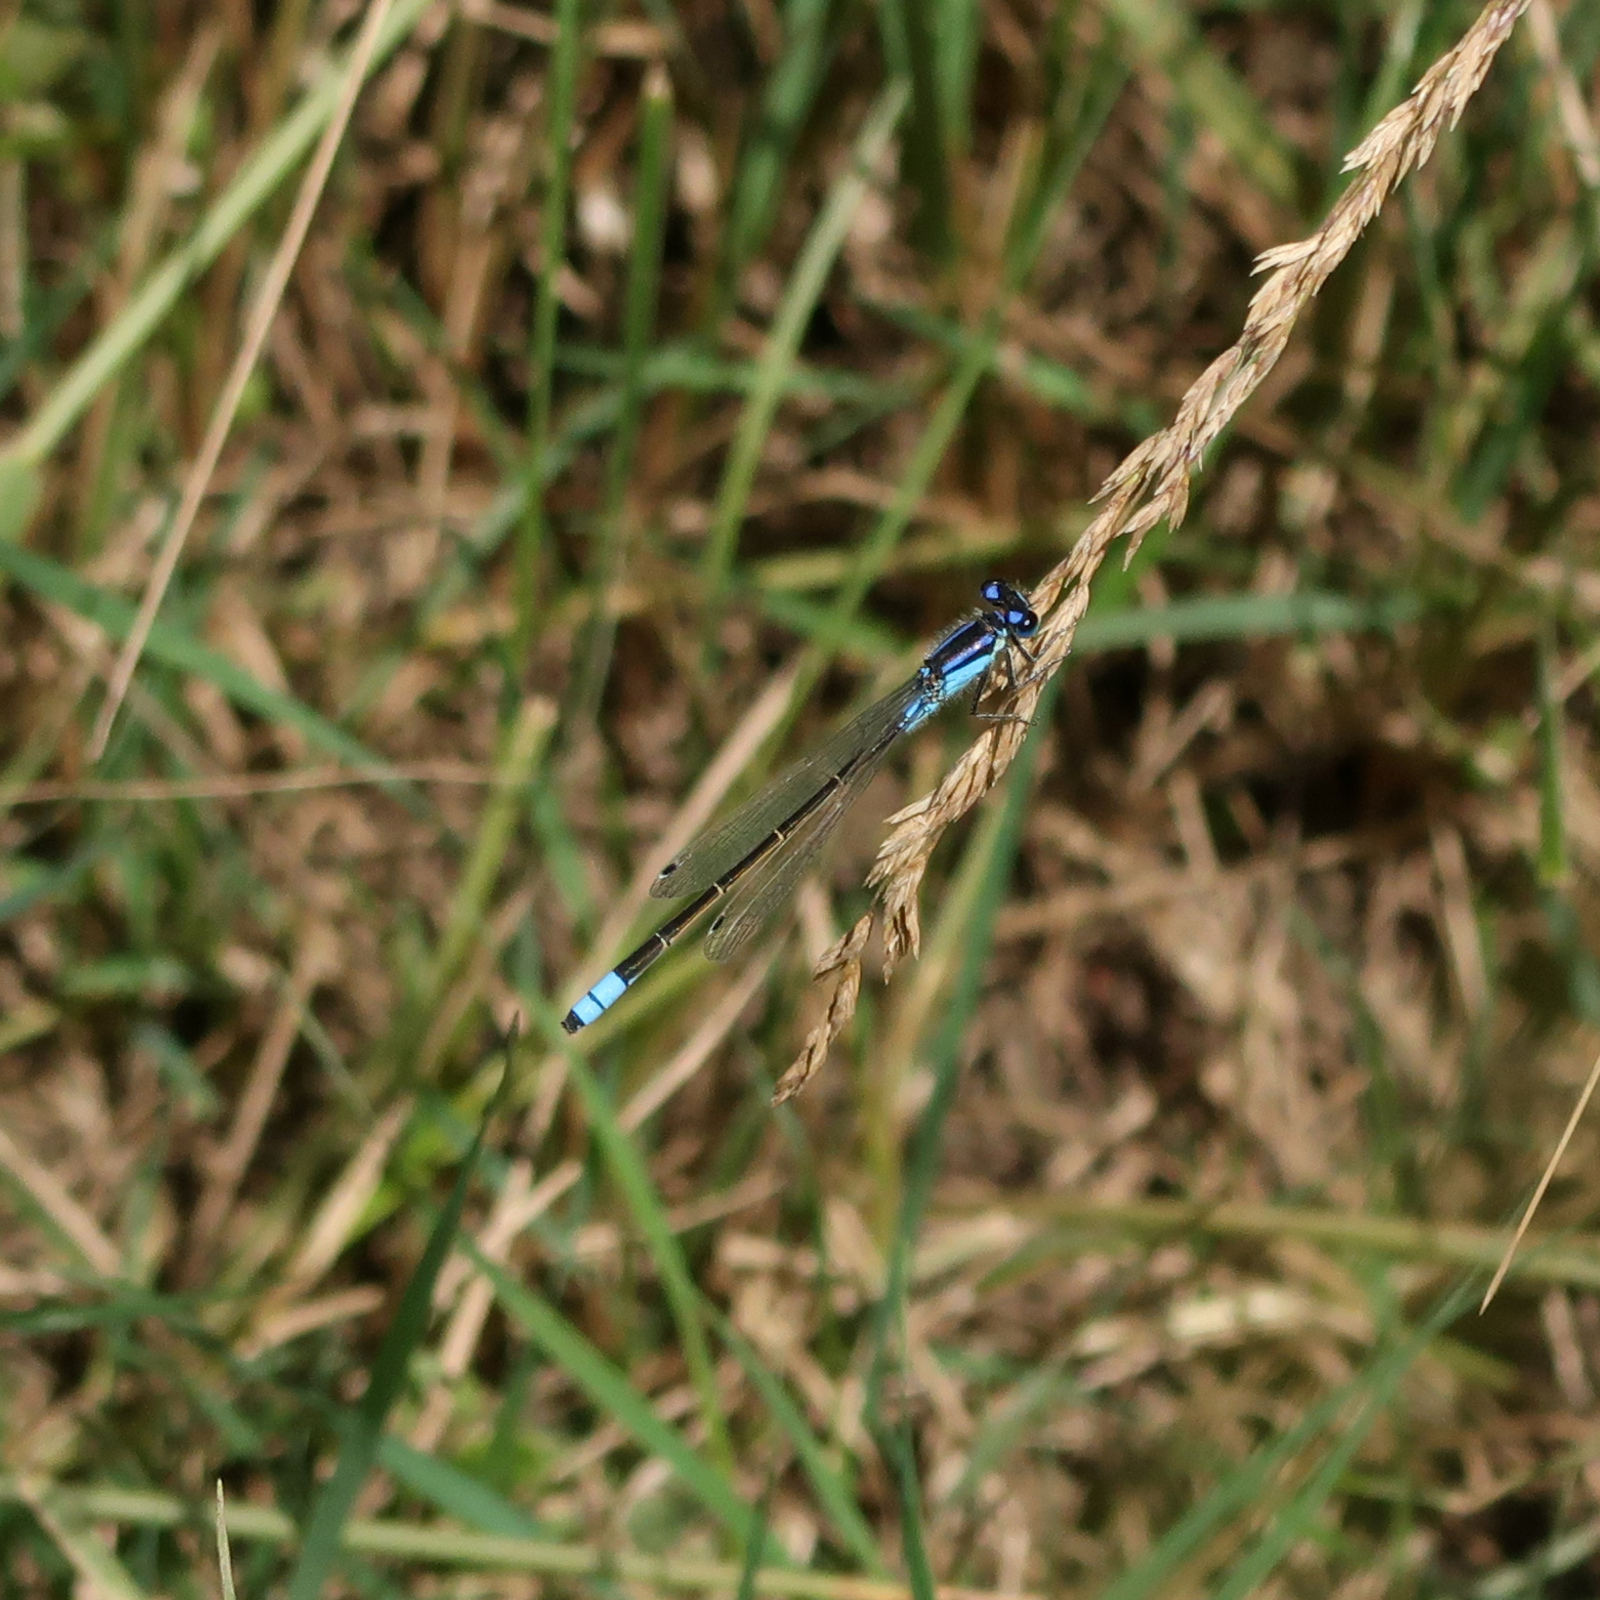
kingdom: Animalia
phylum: Arthropoda
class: Insecta
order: Odonata
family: Coenagrionidae
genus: Ischnura
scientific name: Ischnura heterosticta
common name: Common bluetail
